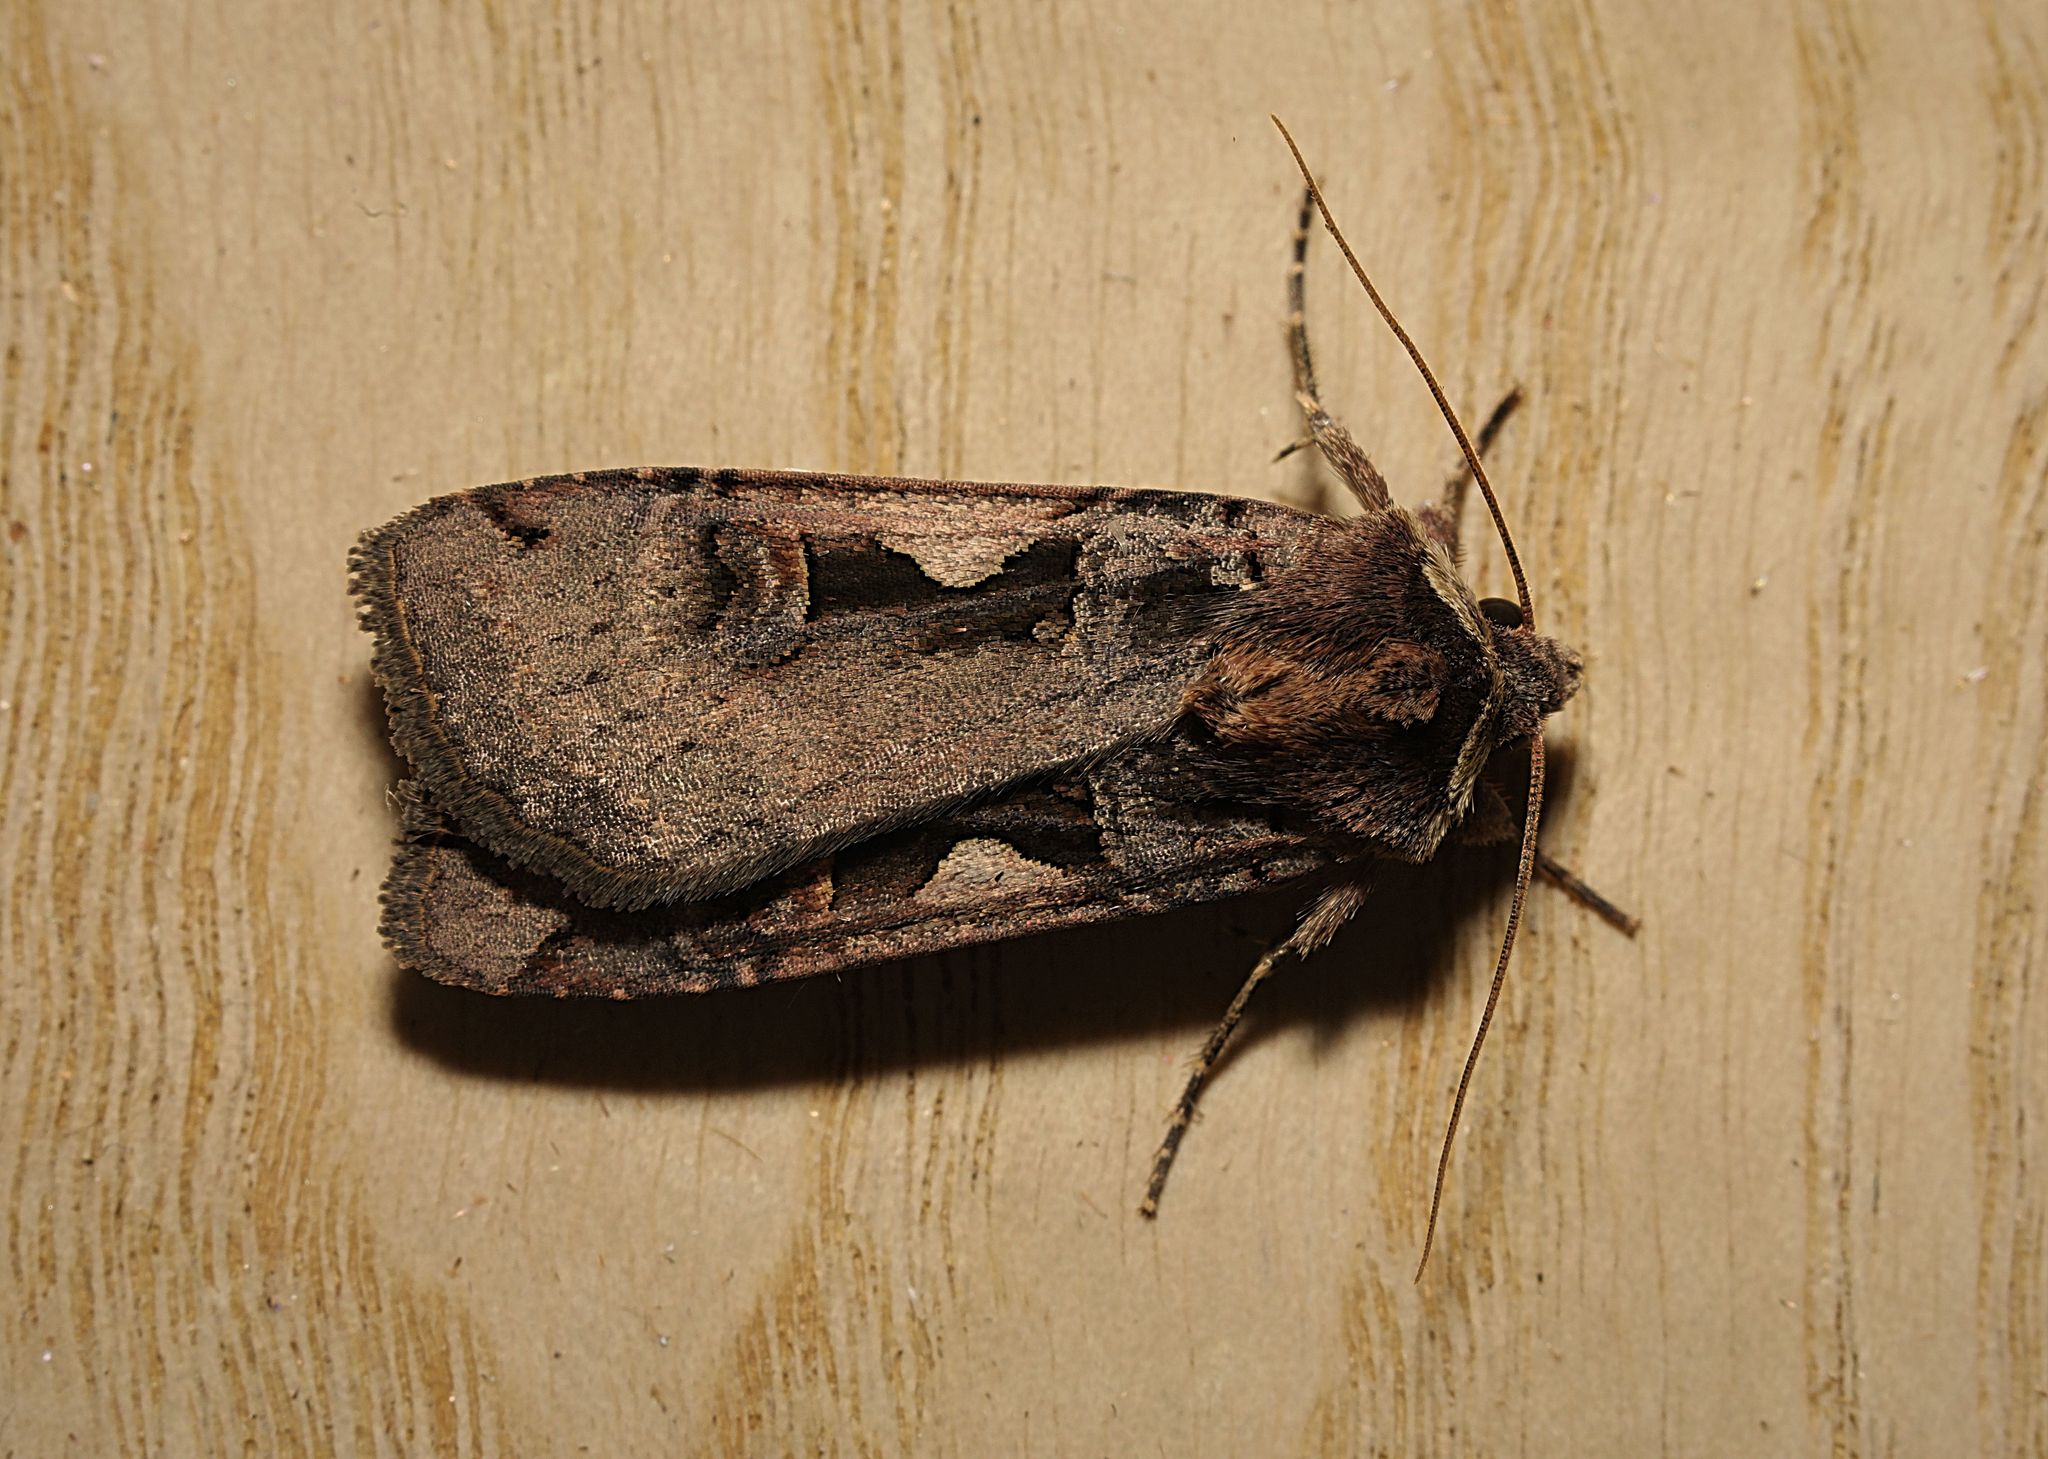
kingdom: Animalia
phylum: Arthropoda
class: Insecta
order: Lepidoptera
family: Noctuidae
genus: Xestia
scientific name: Xestia c-nigrum
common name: Setaceous hebrew character
